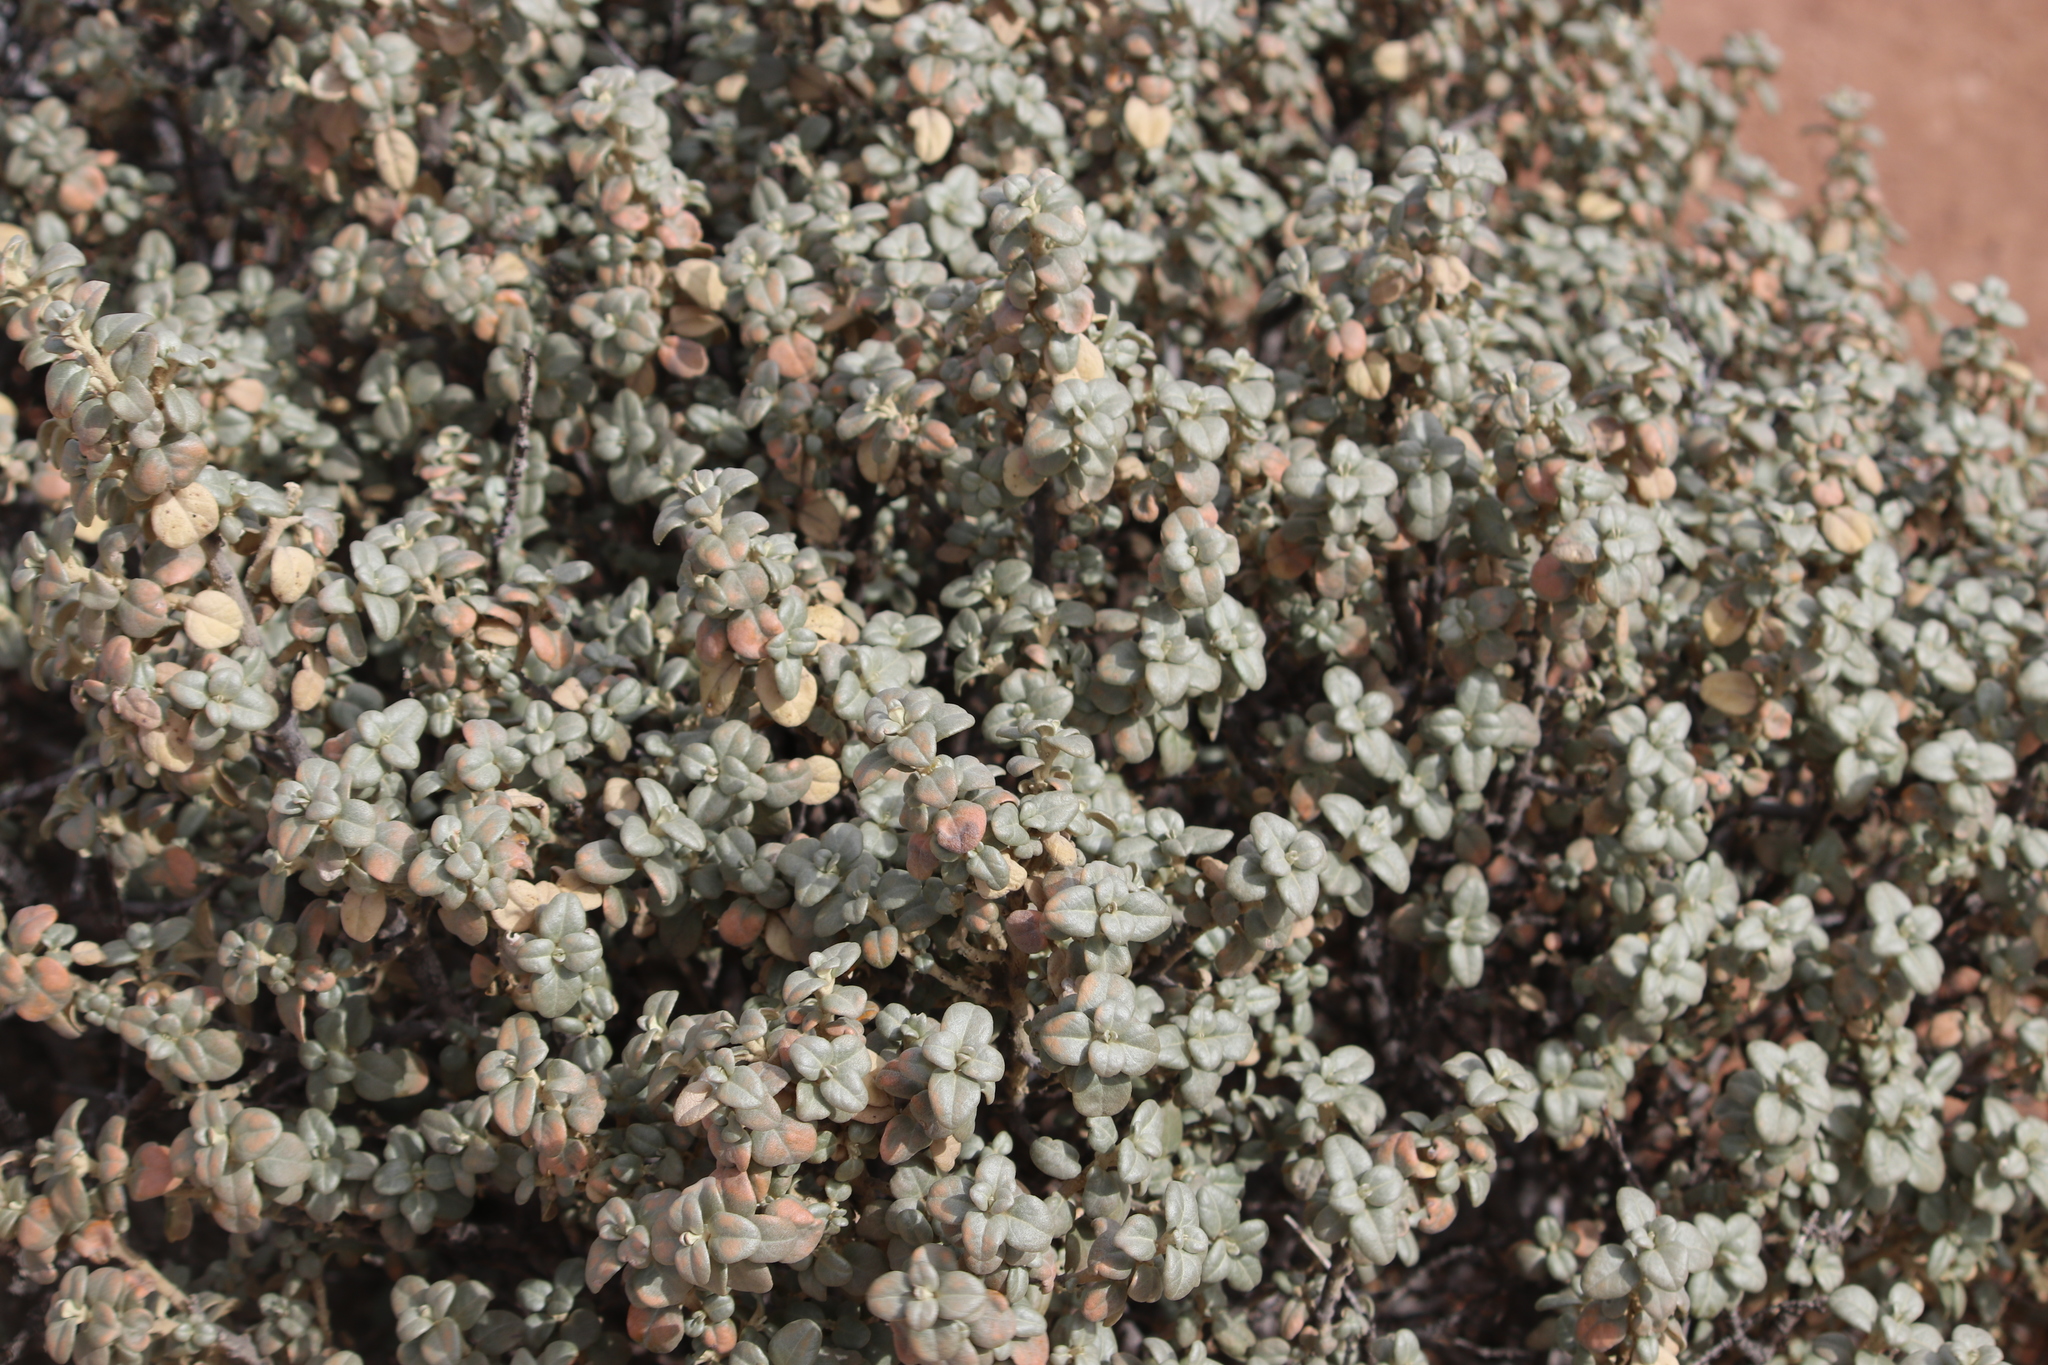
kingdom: Plantae
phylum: Tracheophyta
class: Magnoliopsida
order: Rosales
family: Elaeagnaceae
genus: Shepherdia
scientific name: Shepherdia rotundifolia
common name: Silverscale
